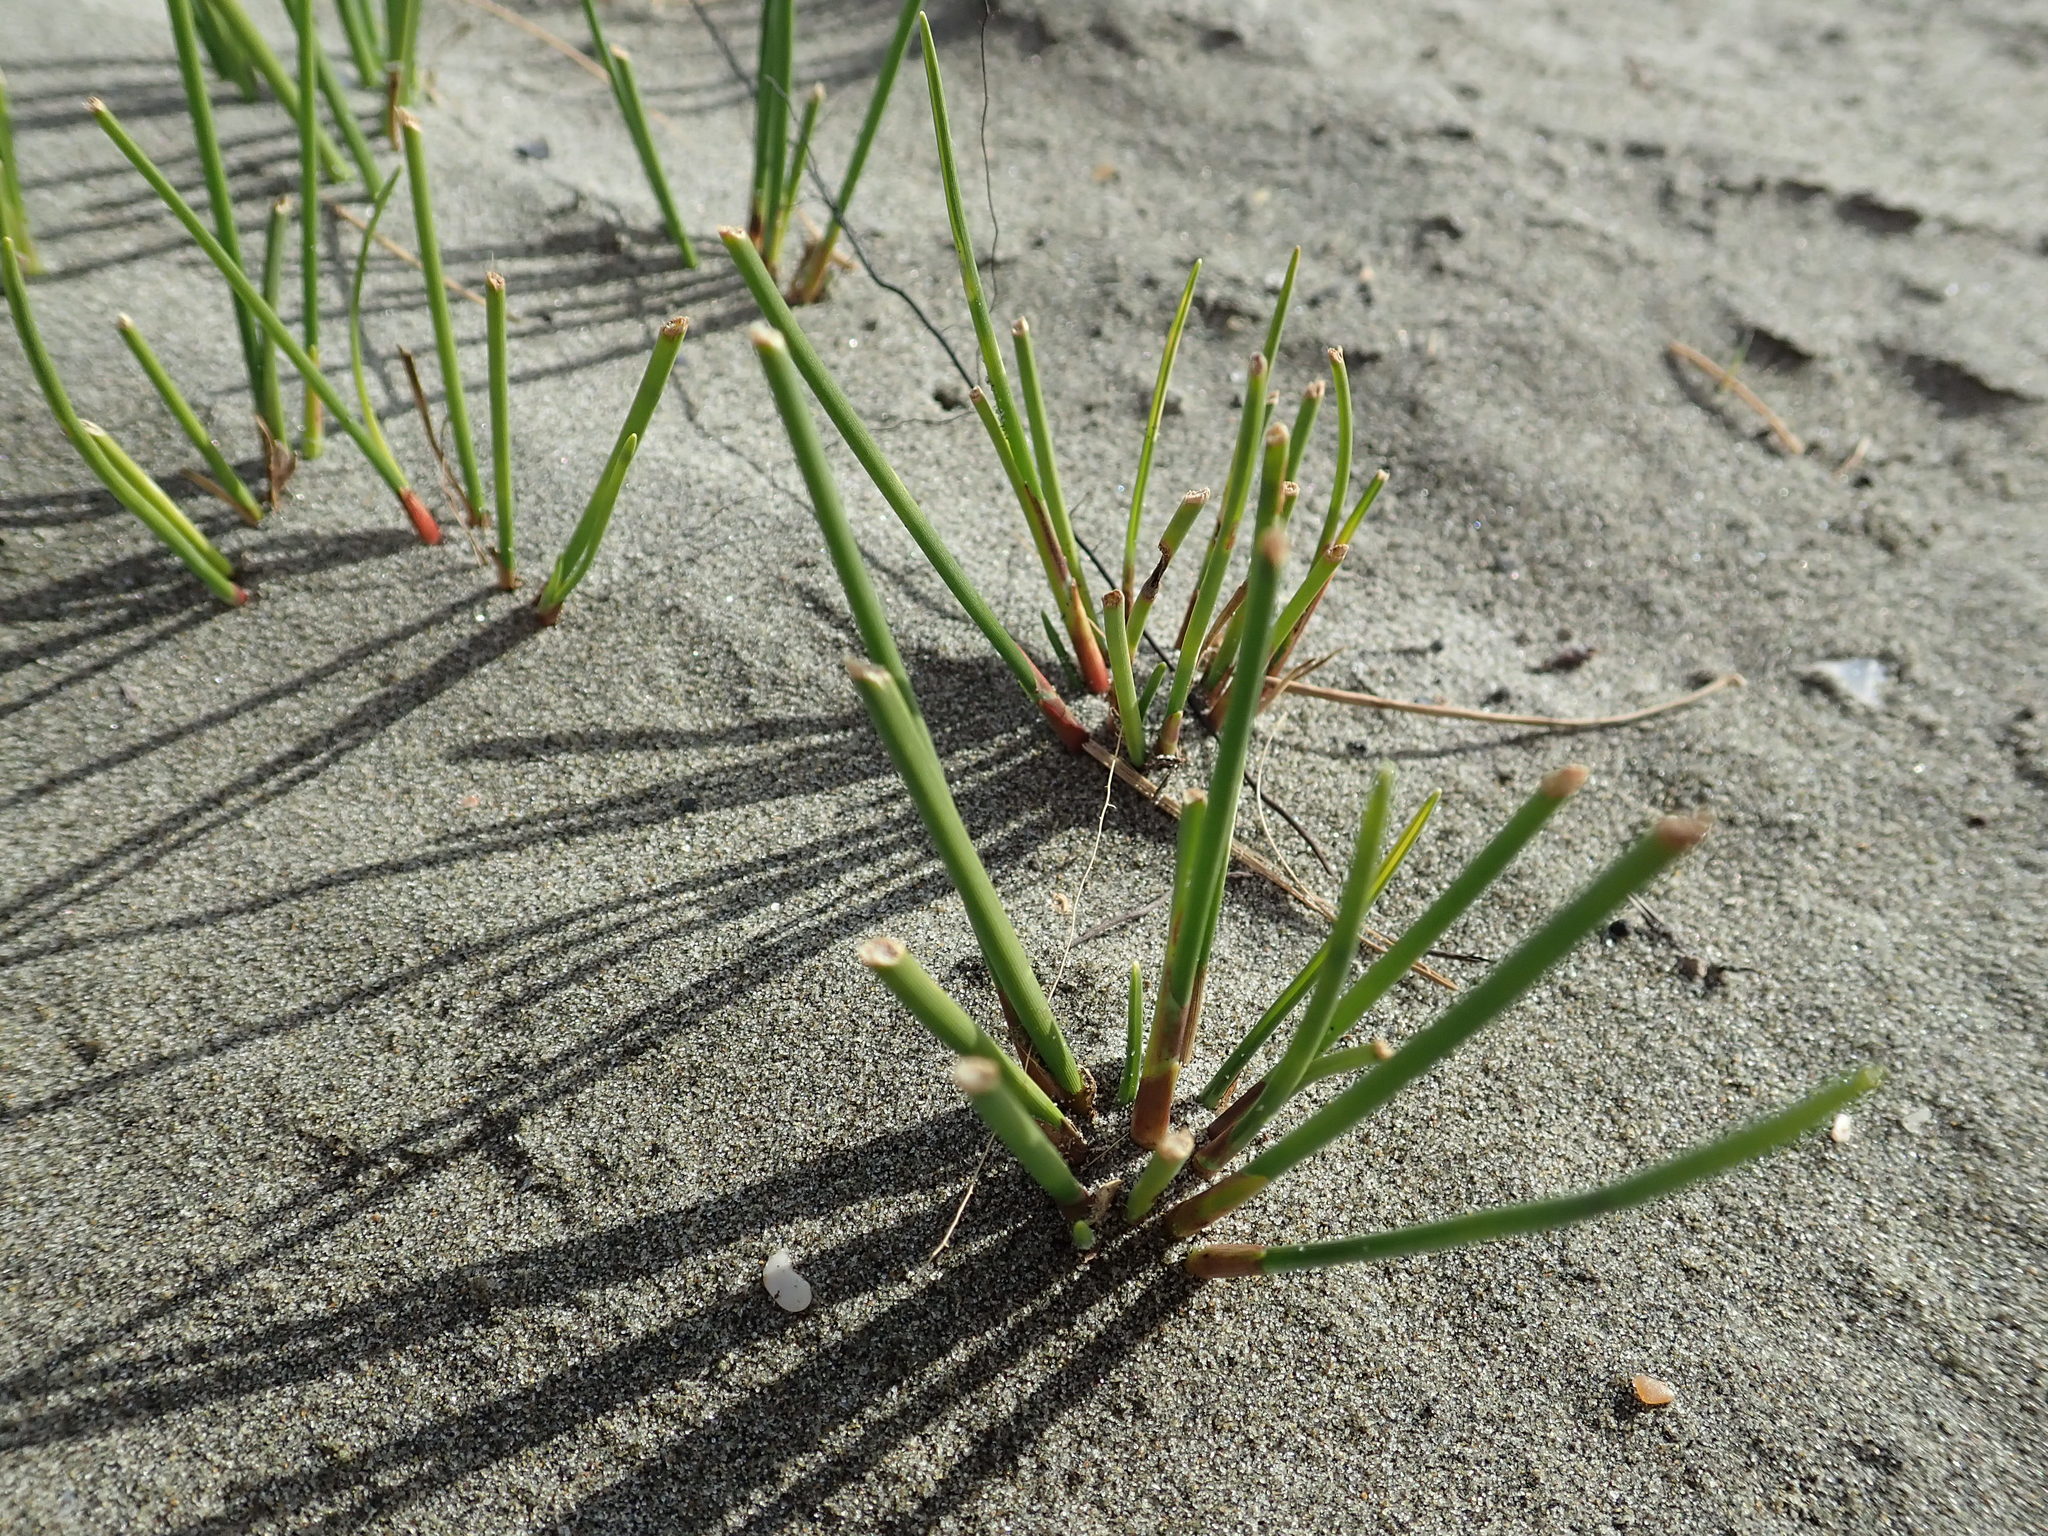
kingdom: Plantae
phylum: Tracheophyta
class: Liliopsida
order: Poales
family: Cyperaceae
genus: Ficinia
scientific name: Ficinia nodosa
